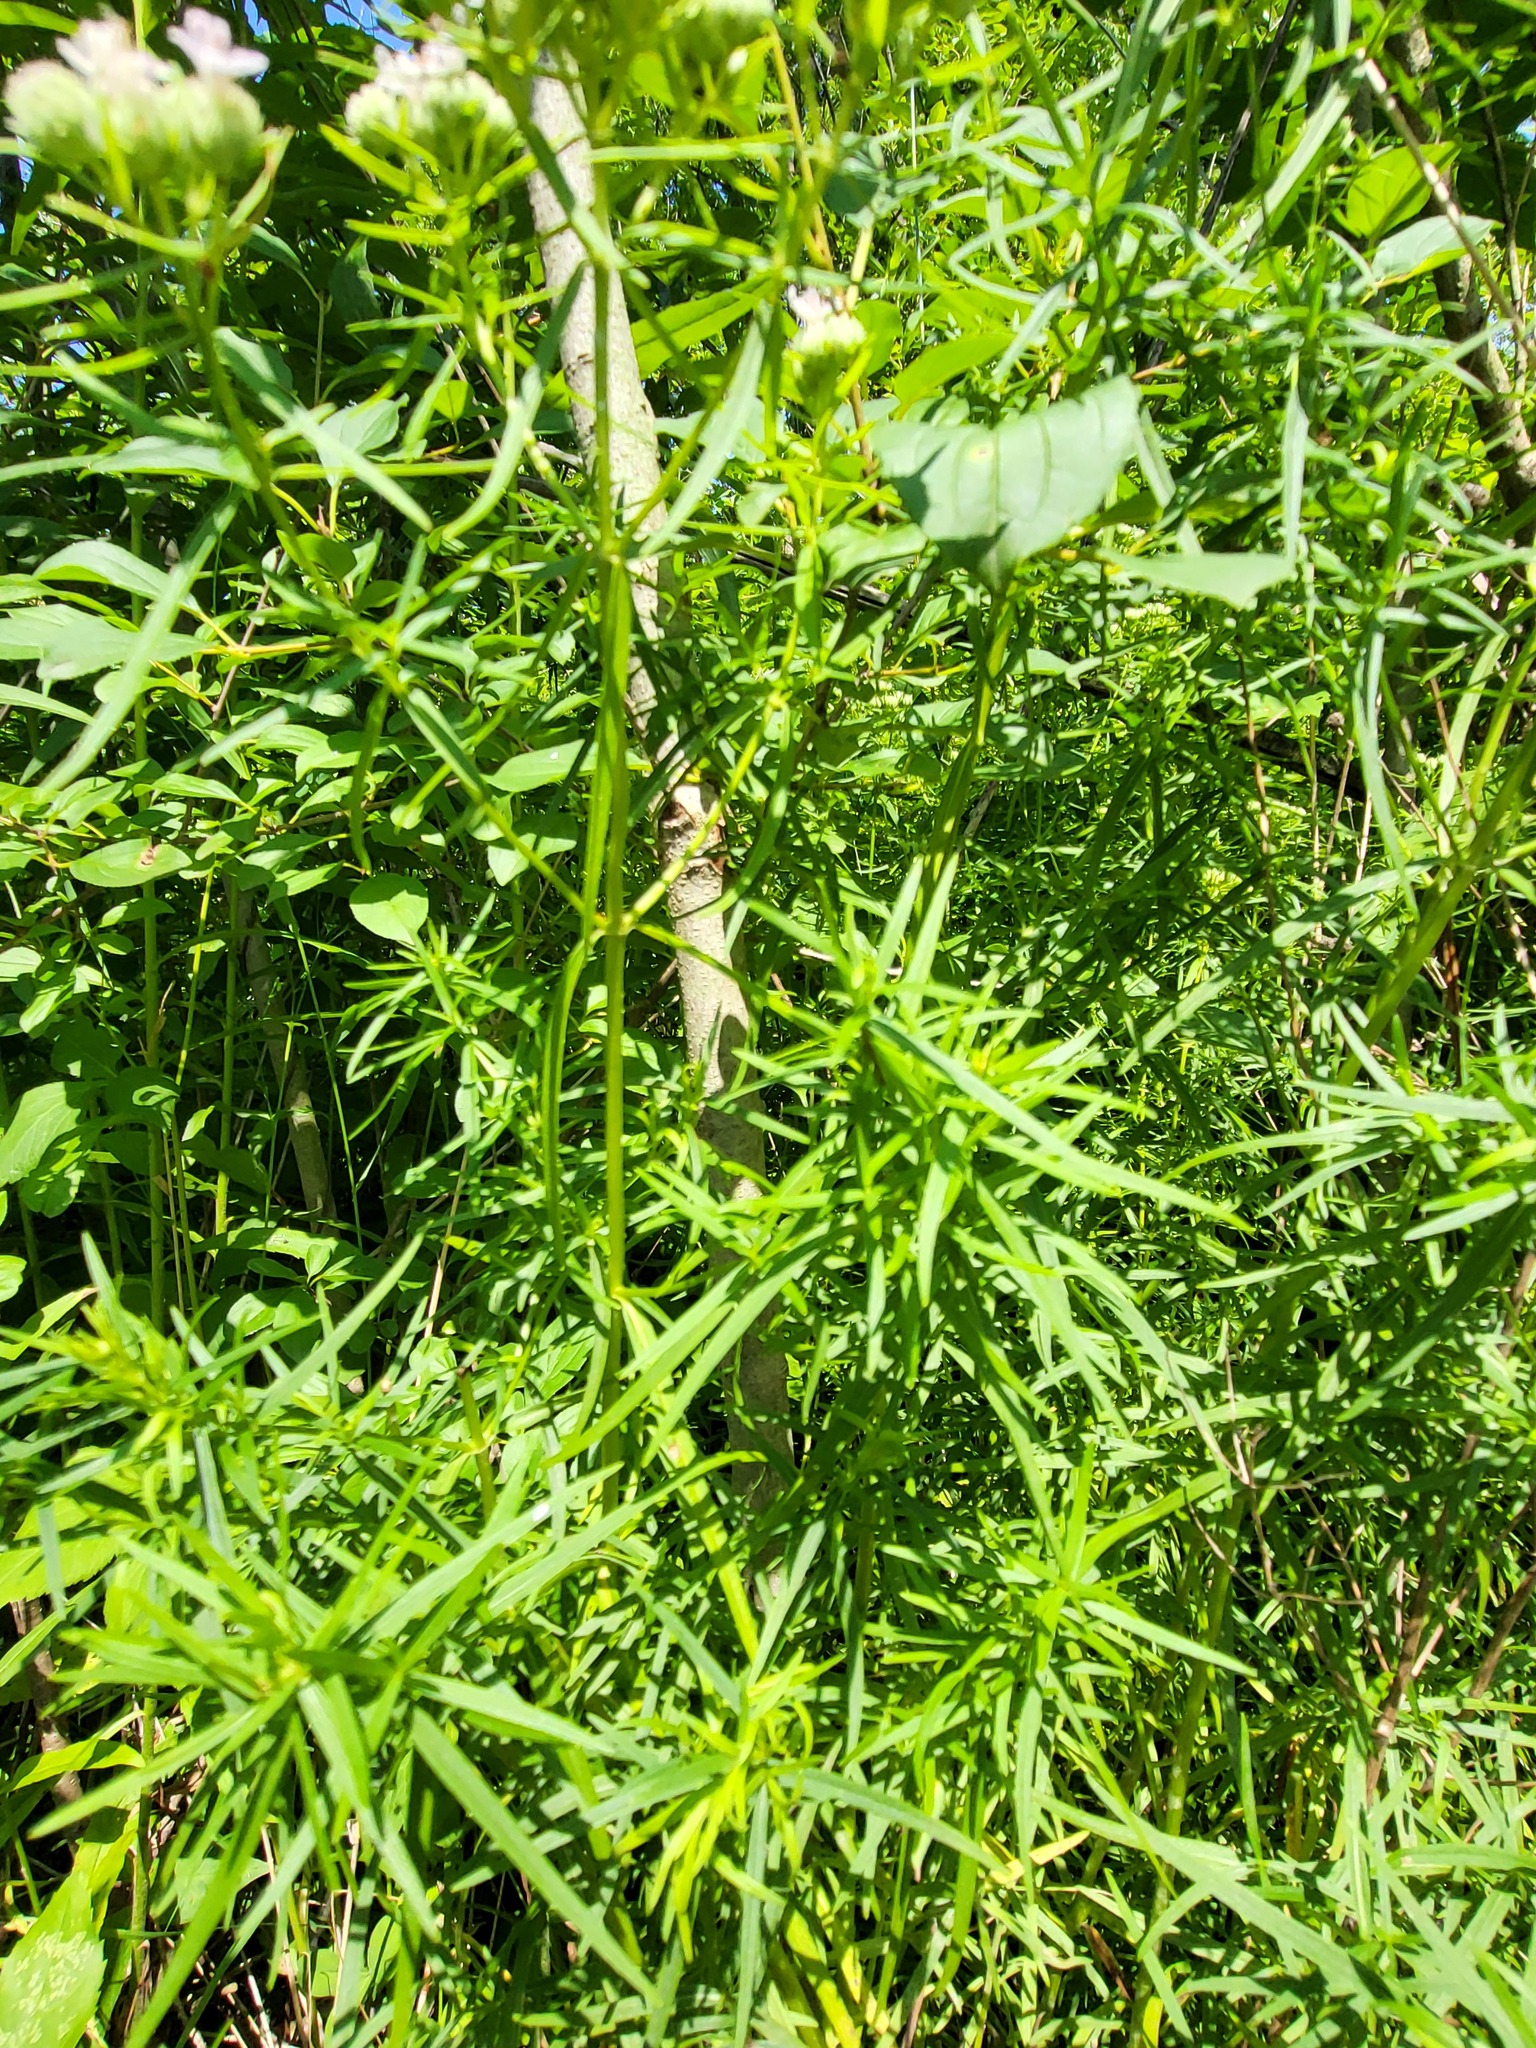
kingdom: Plantae
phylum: Tracheophyta
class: Magnoliopsida
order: Lamiales
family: Lamiaceae
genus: Pycnanthemum
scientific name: Pycnanthemum tenuifolium
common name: Narrow-leaf mountain-mint
